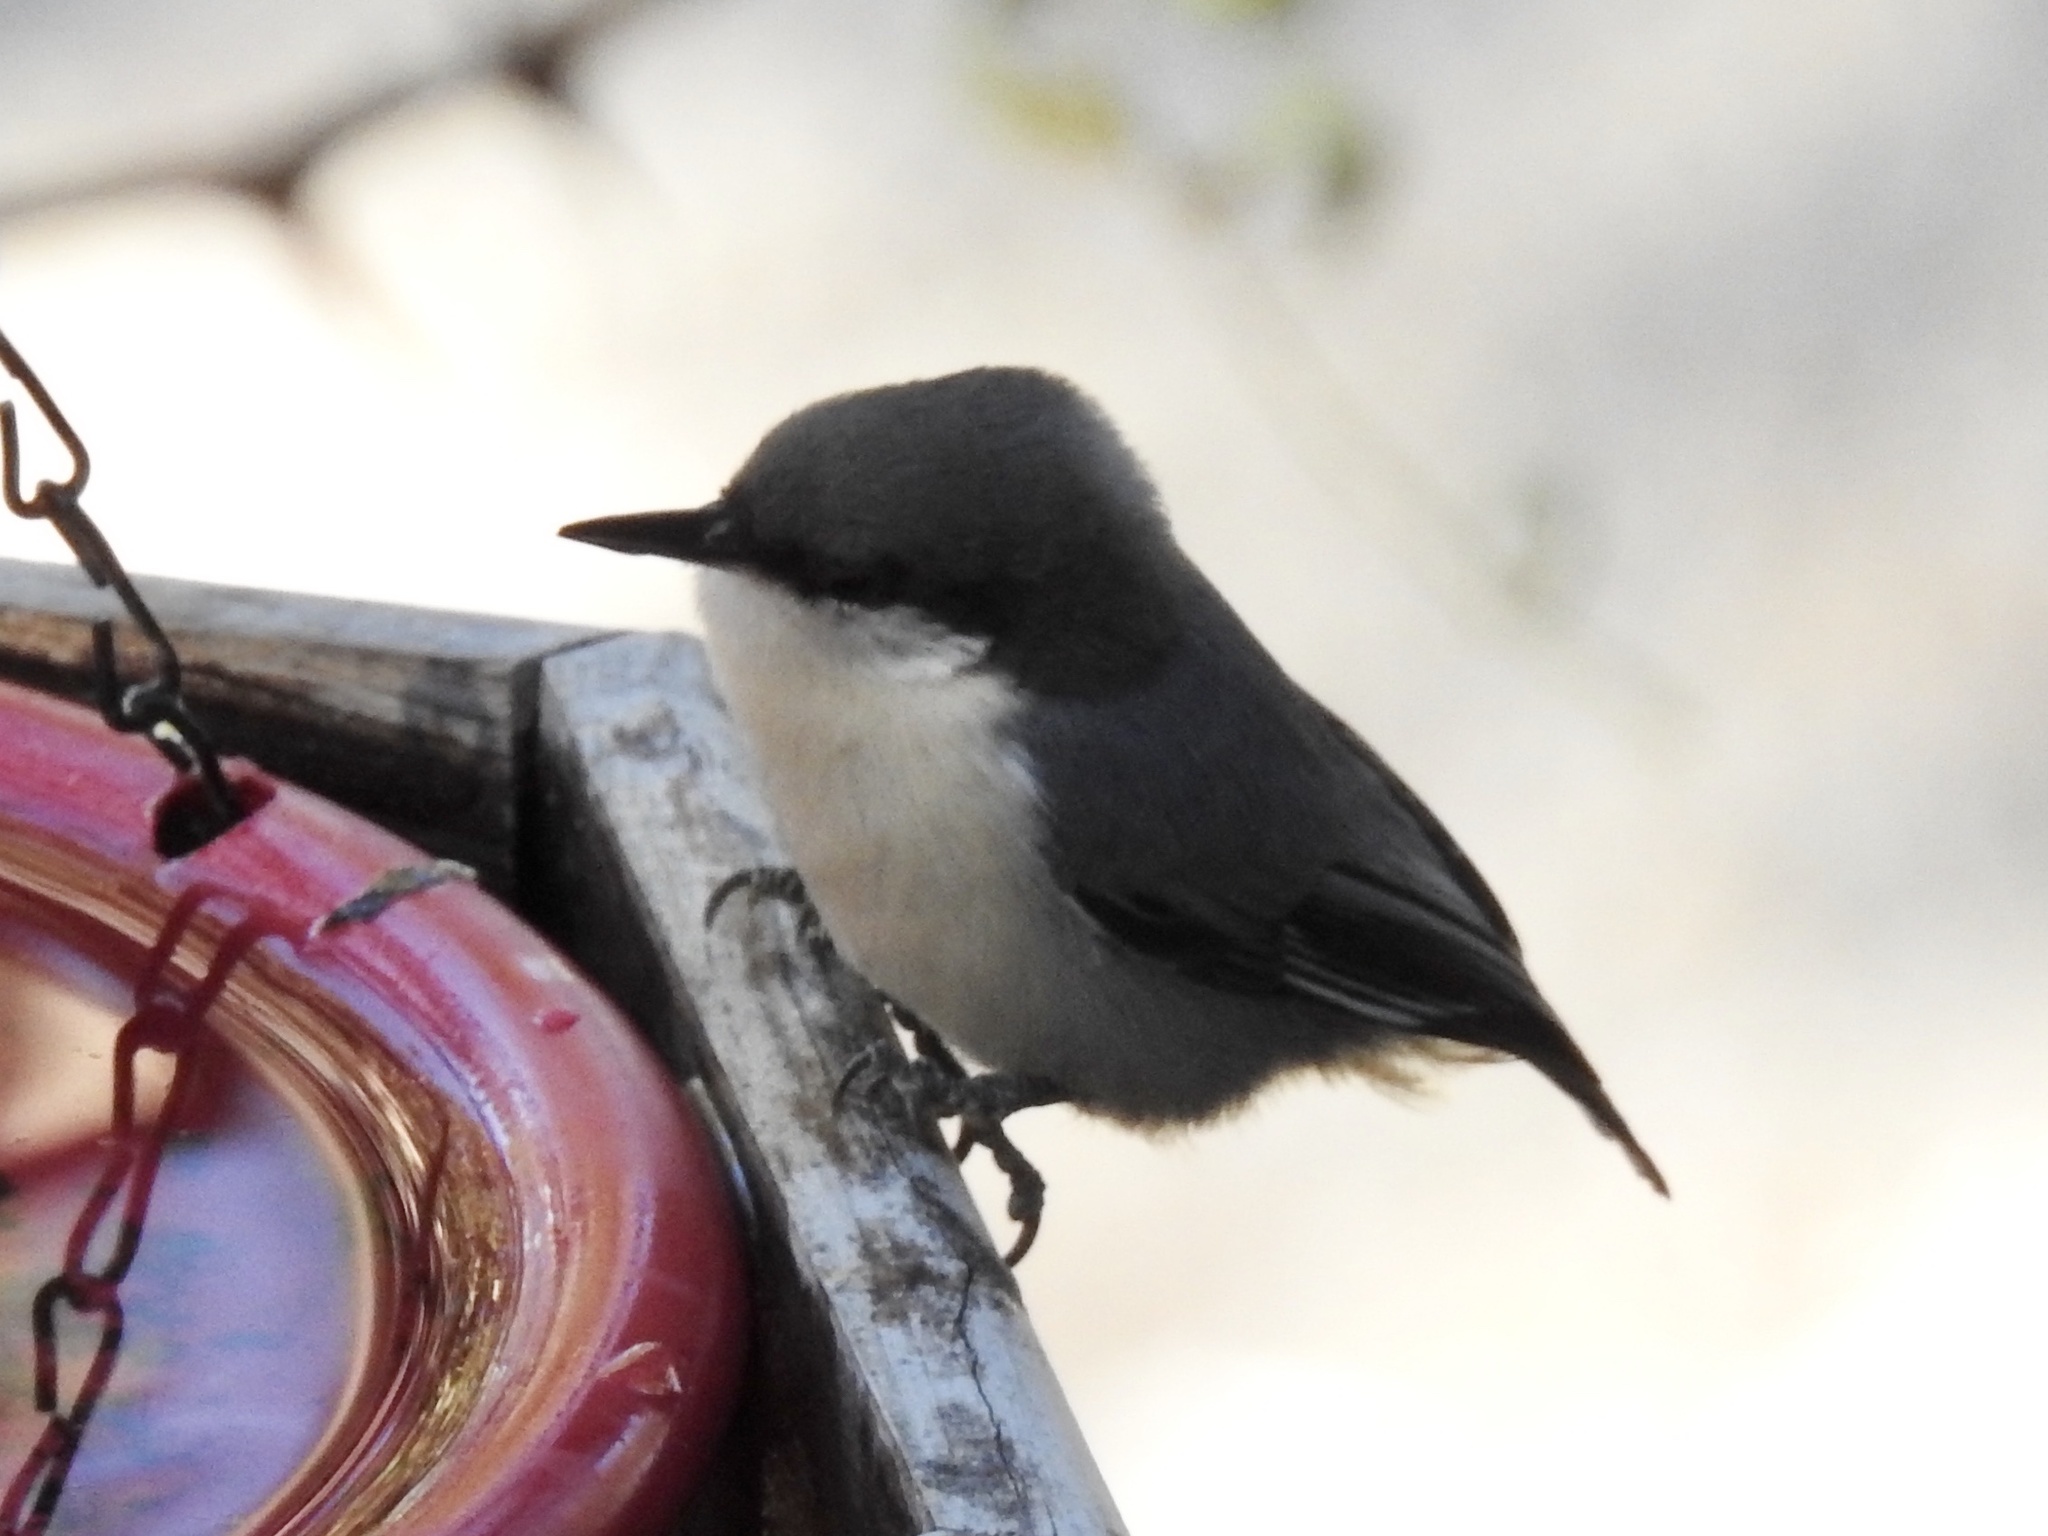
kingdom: Animalia
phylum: Chordata
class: Aves
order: Passeriformes
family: Sittidae
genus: Sitta
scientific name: Sitta pygmaea
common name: Pygmy nuthatch
